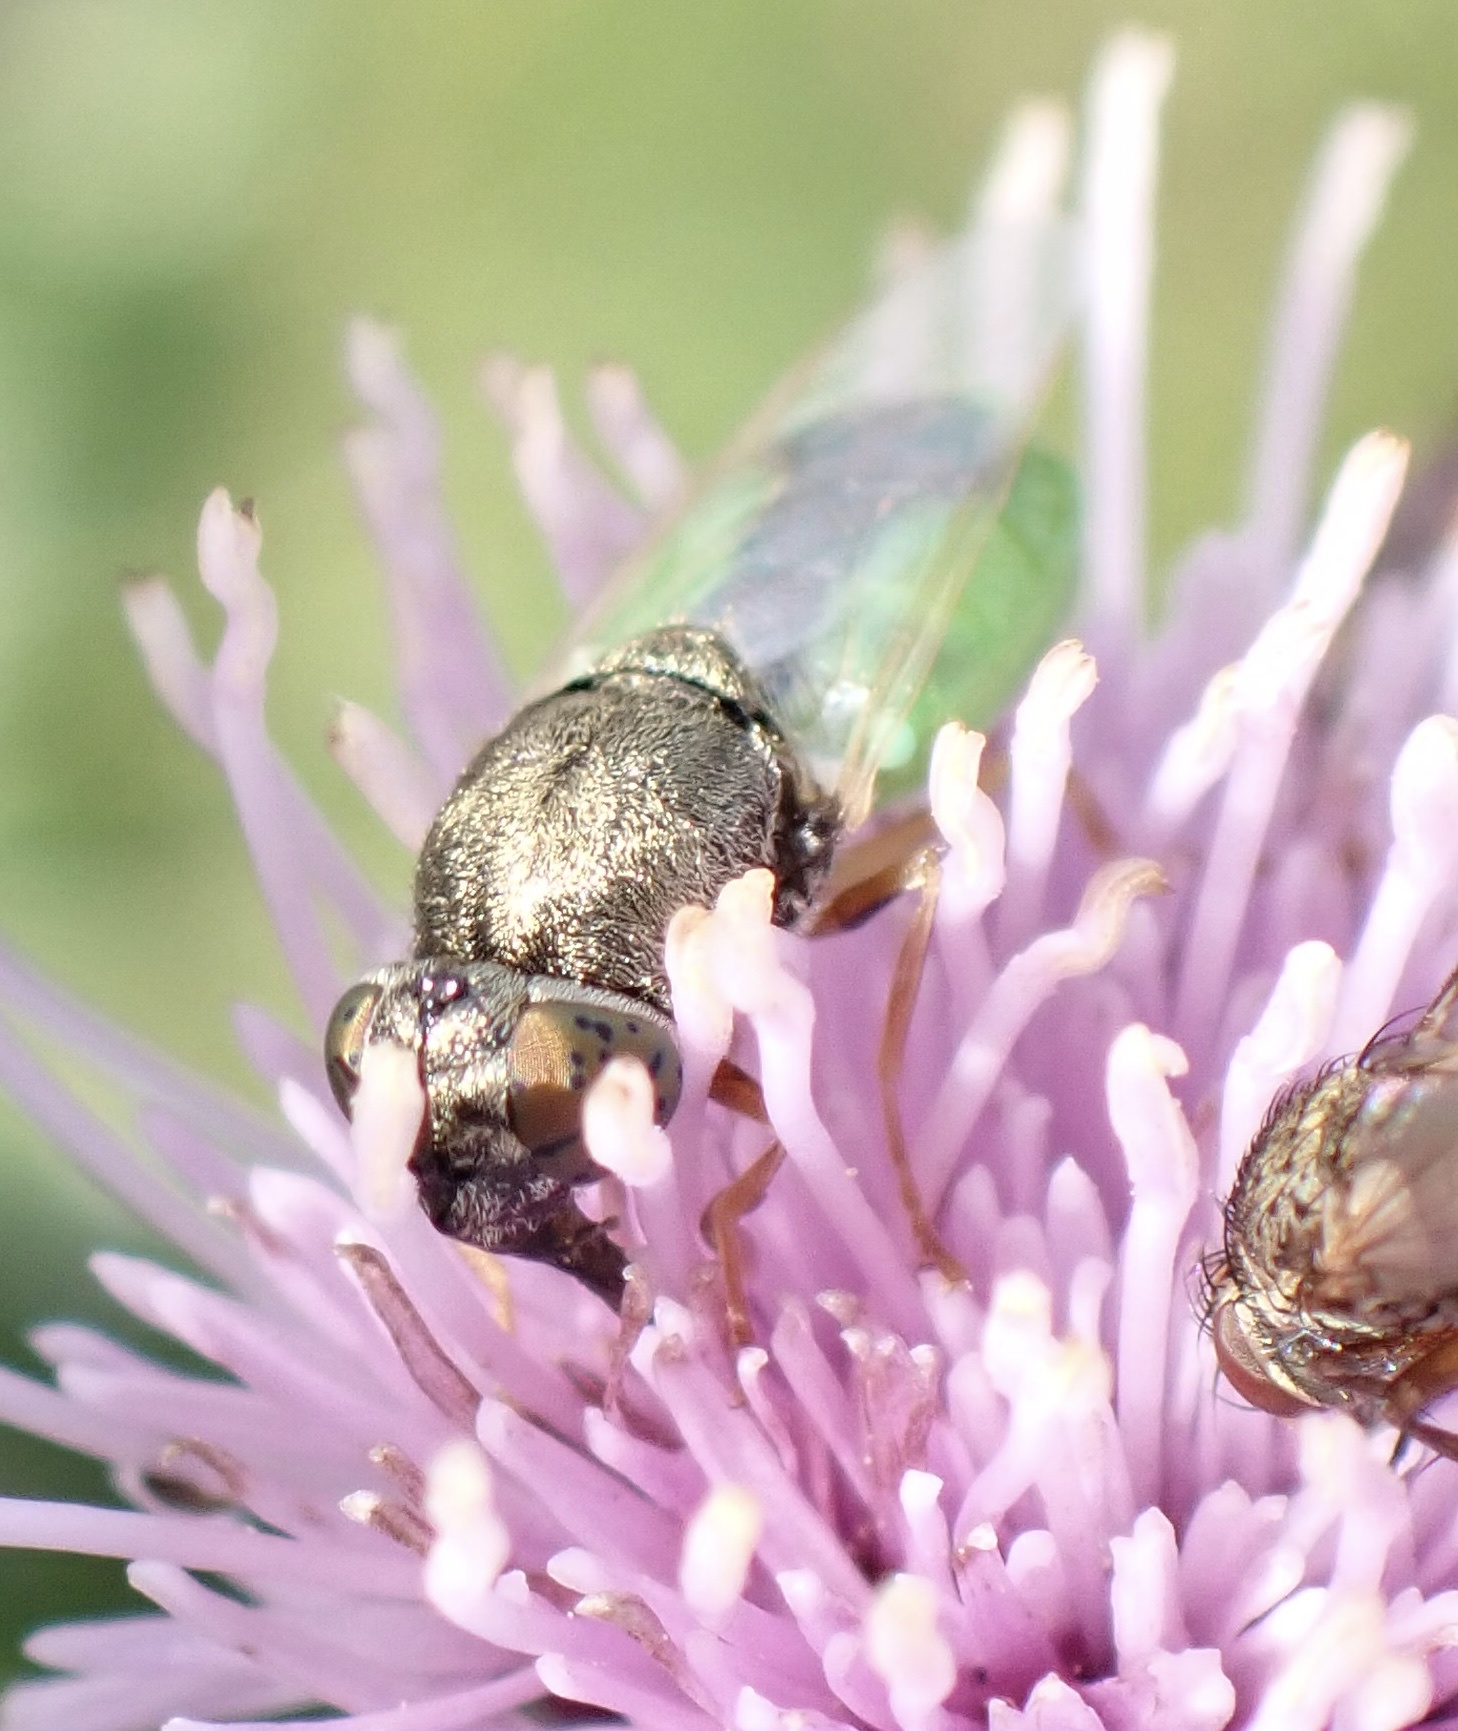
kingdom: Animalia
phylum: Arthropoda
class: Insecta
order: Diptera
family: Stratiomyidae
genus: Oplodontha
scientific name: Oplodontha viridula
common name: Common green colonel
